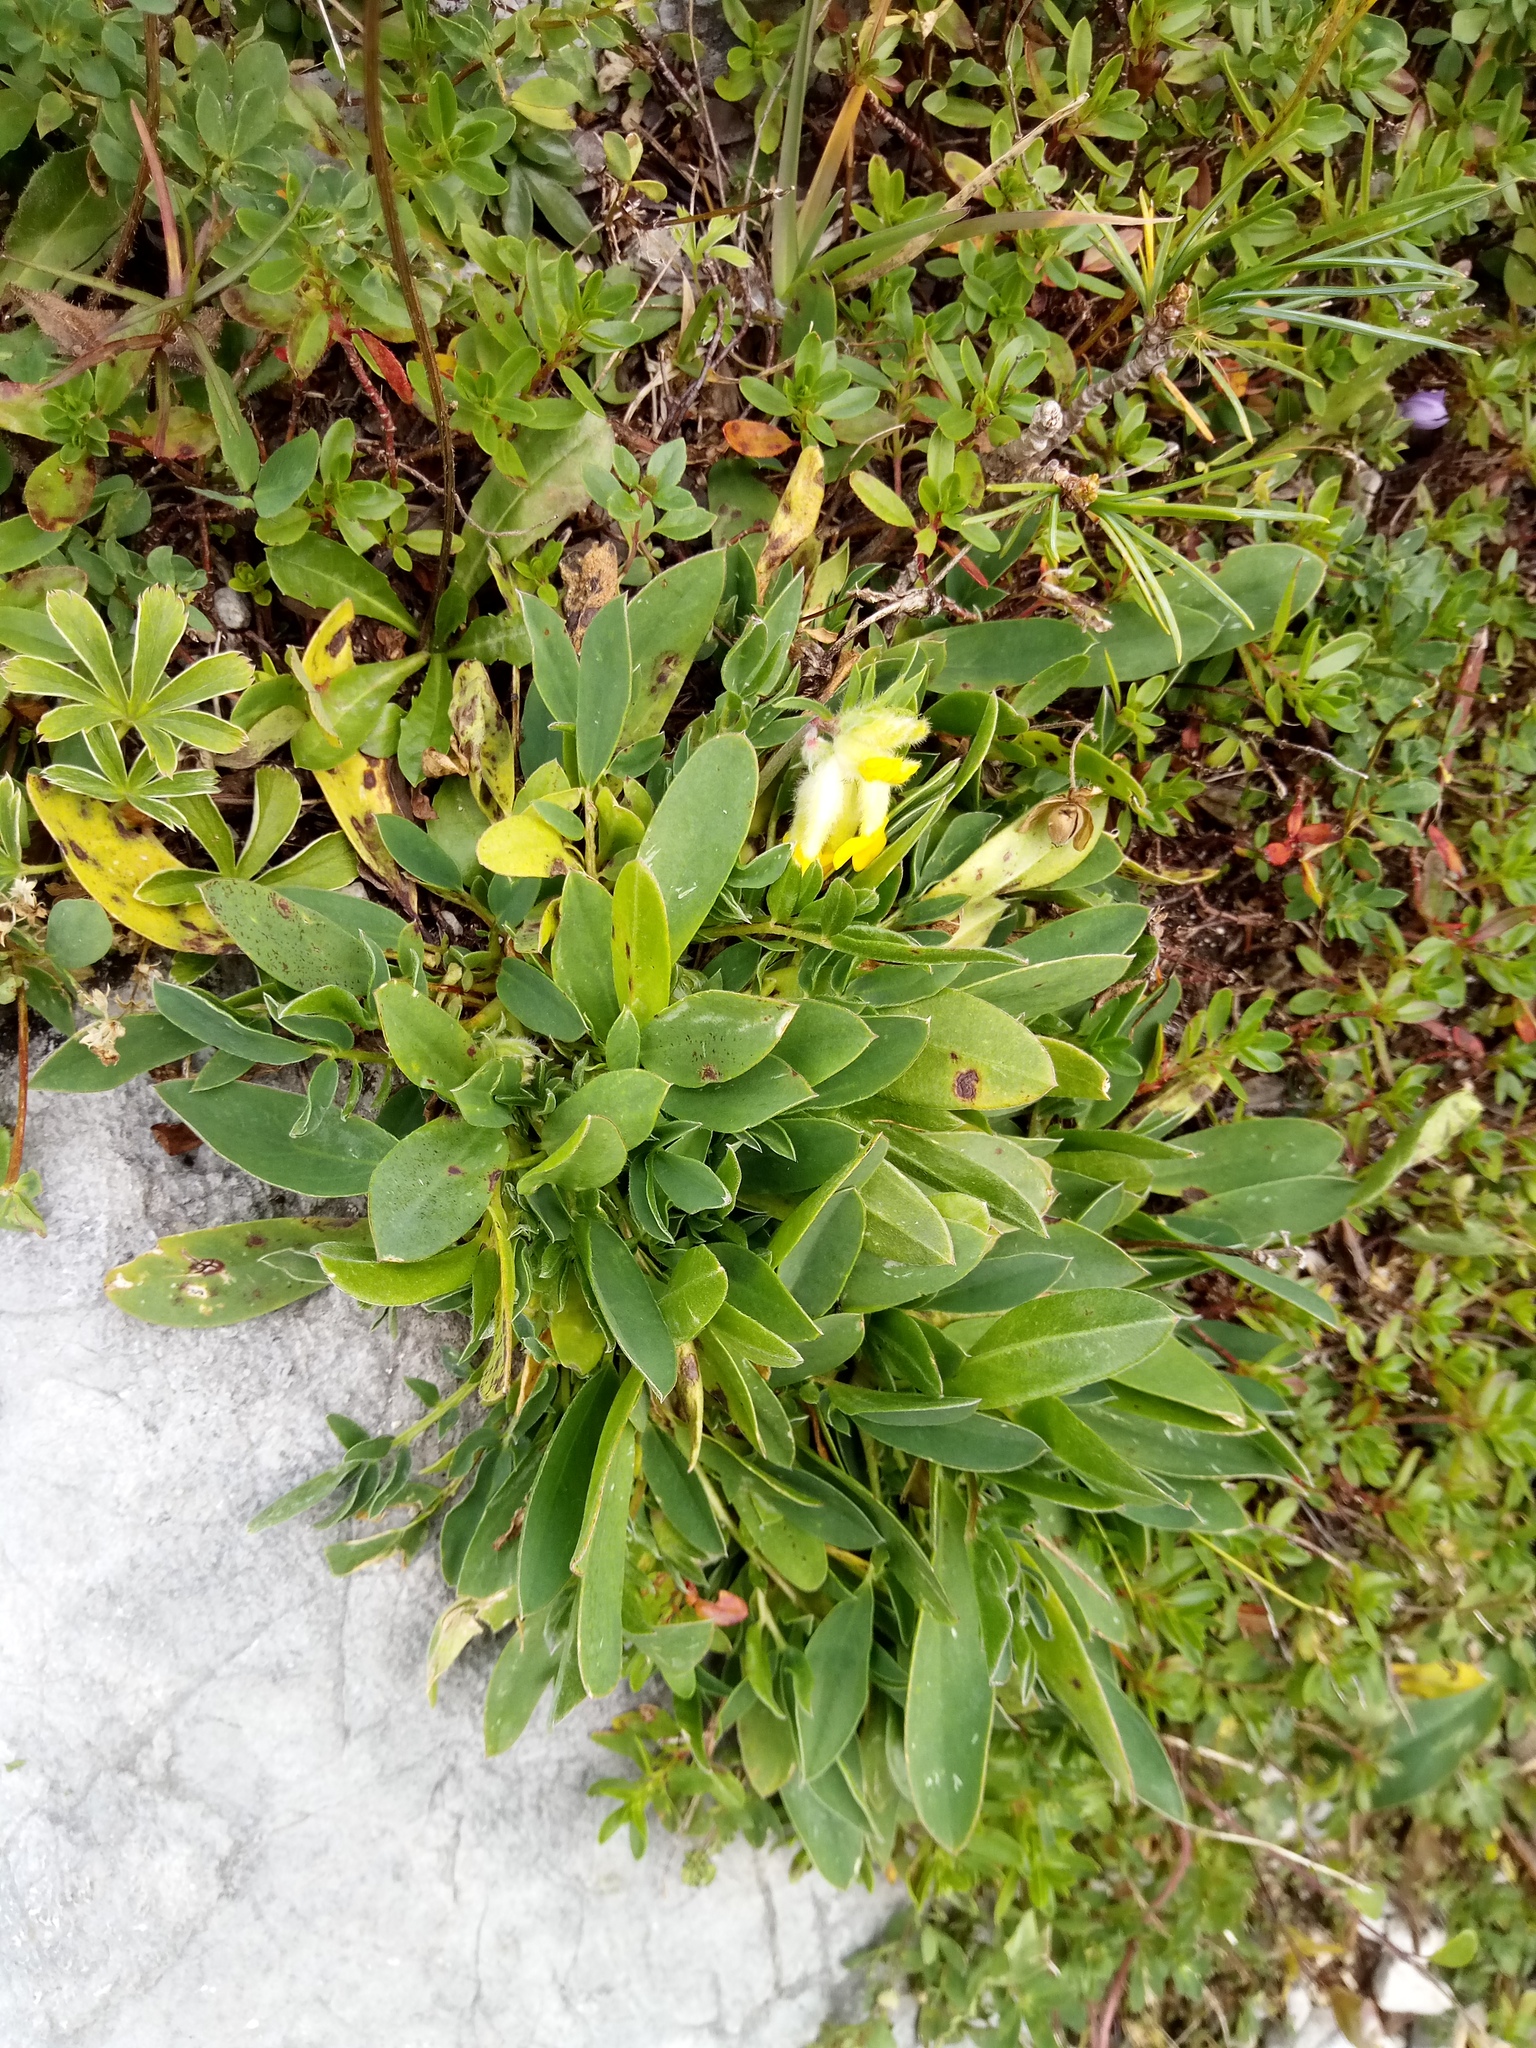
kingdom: Plantae
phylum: Tracheophyta
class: Magnoliopsida
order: Fabales
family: Fabaceae
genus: Anthyllis
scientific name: Anthyllis vulneraria
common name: Kidney vetch
